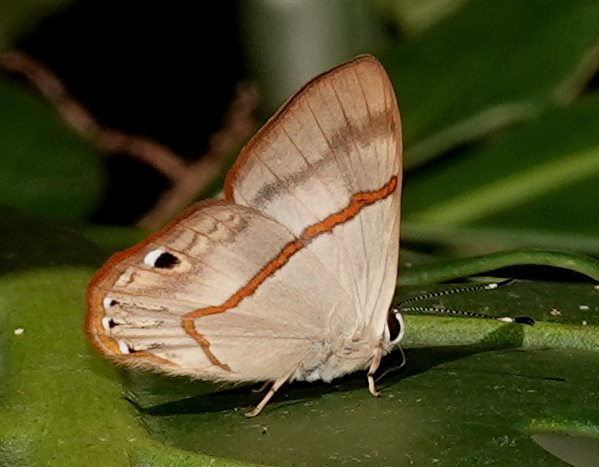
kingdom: Animalia
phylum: Arthropoda
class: Insecta
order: Lepidoptera
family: Lycaenidae
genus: Euselasia
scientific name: Euselasia parca
